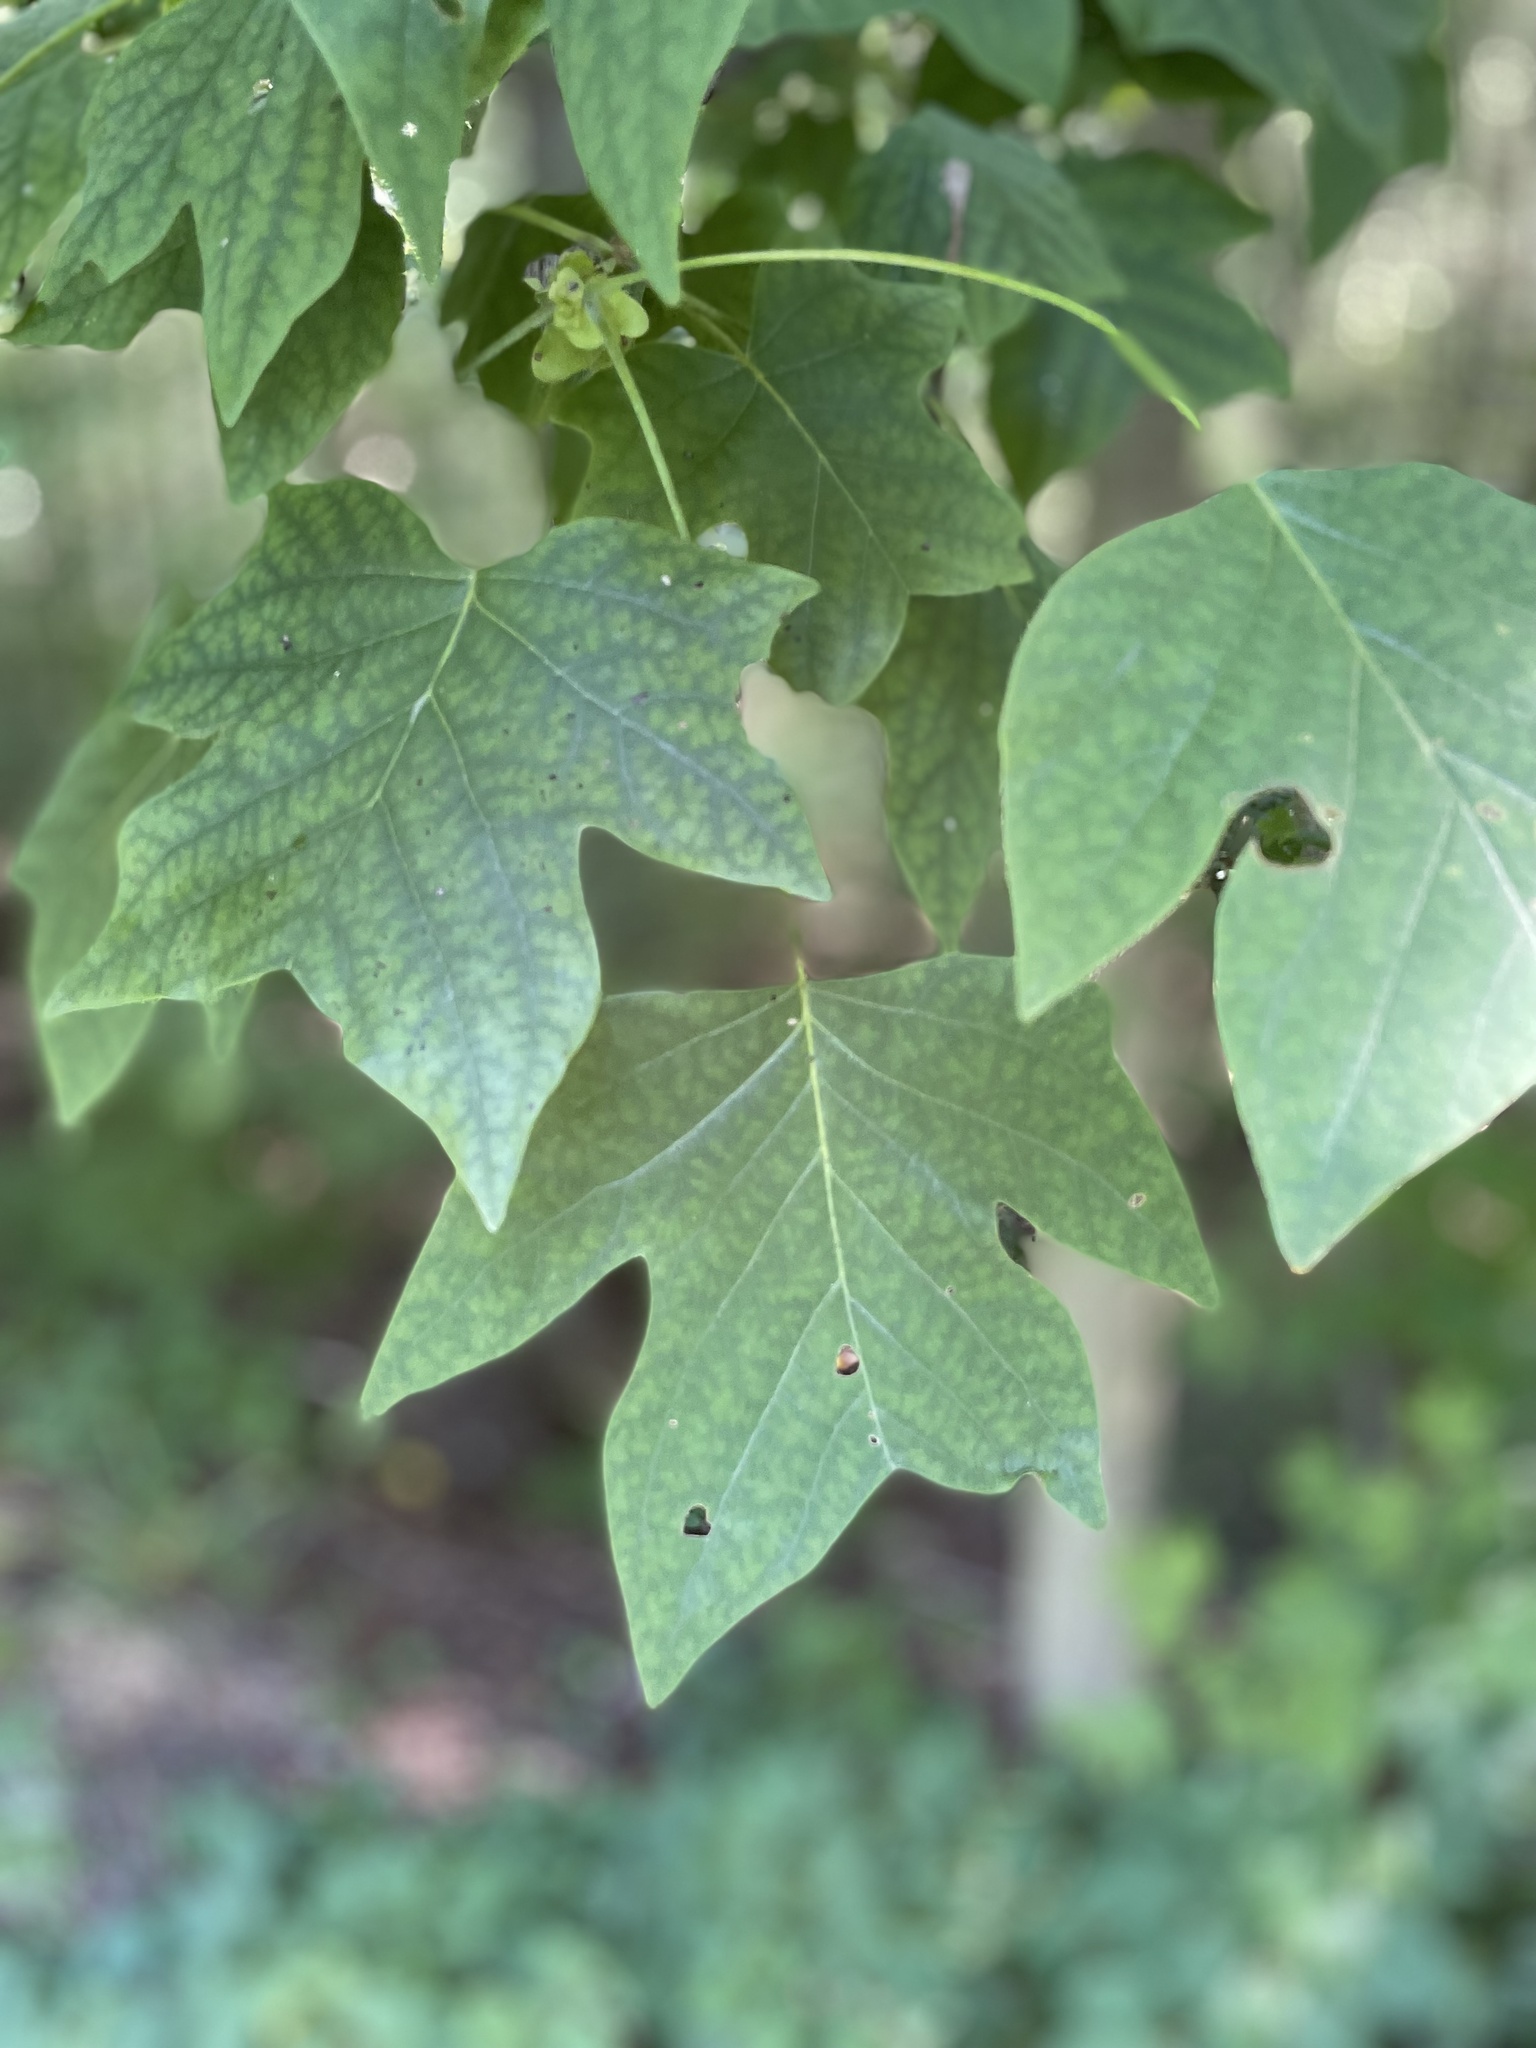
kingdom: Plantae
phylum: Tracheophyta
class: Magnoliopsida
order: Magnoliales
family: Magnoliaceae
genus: Liriodendron
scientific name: Liriodendron tulipifera
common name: Tulip tree
